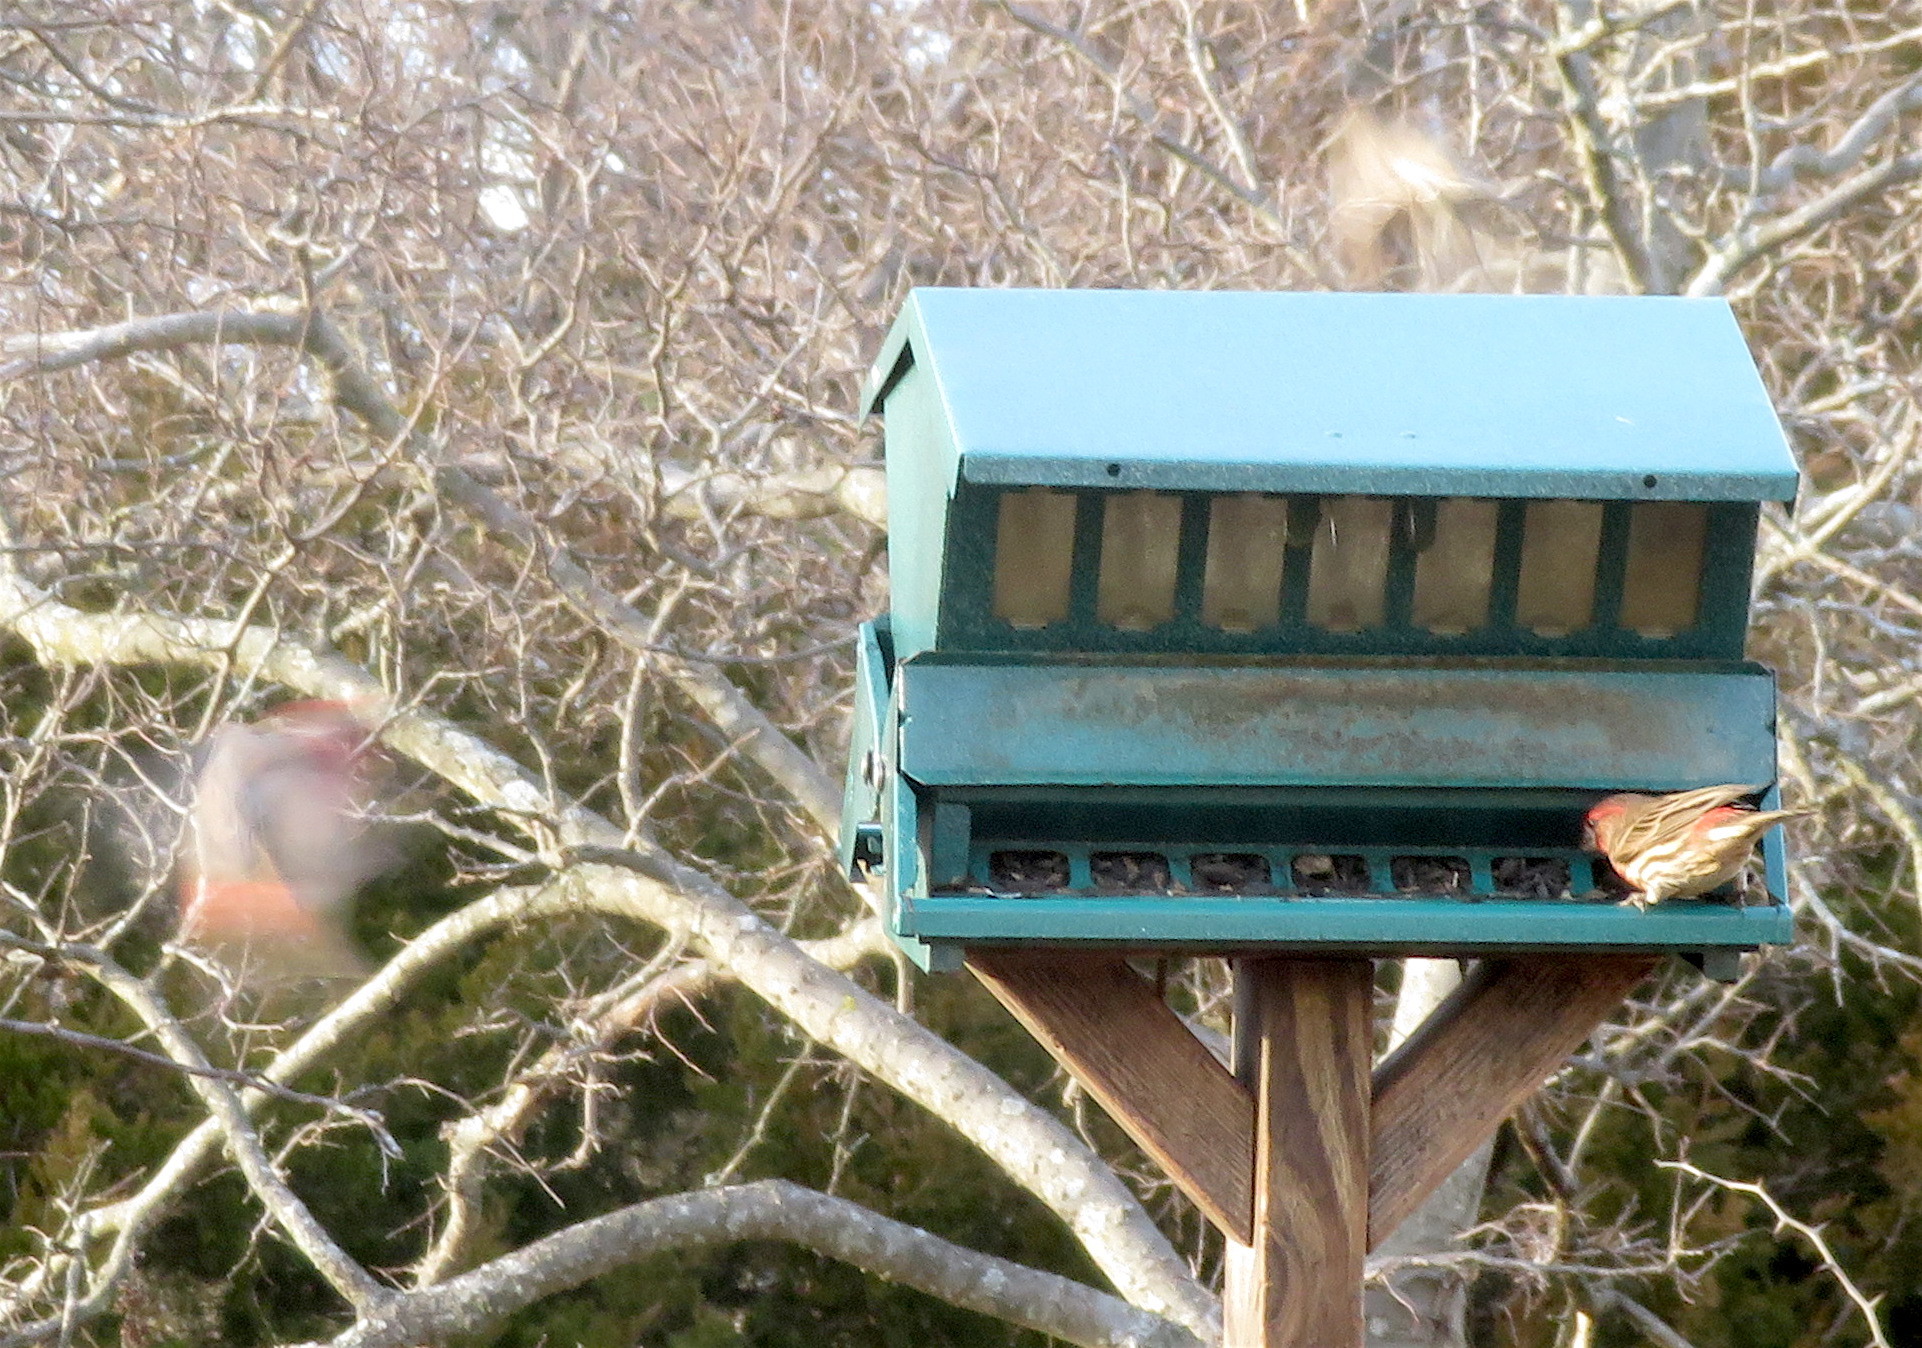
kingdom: Animalia
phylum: Chordata
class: Aves
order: Passeriformes
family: Fringillidae
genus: Haemorhous
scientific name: Haemorhous mexicanus
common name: House finch
